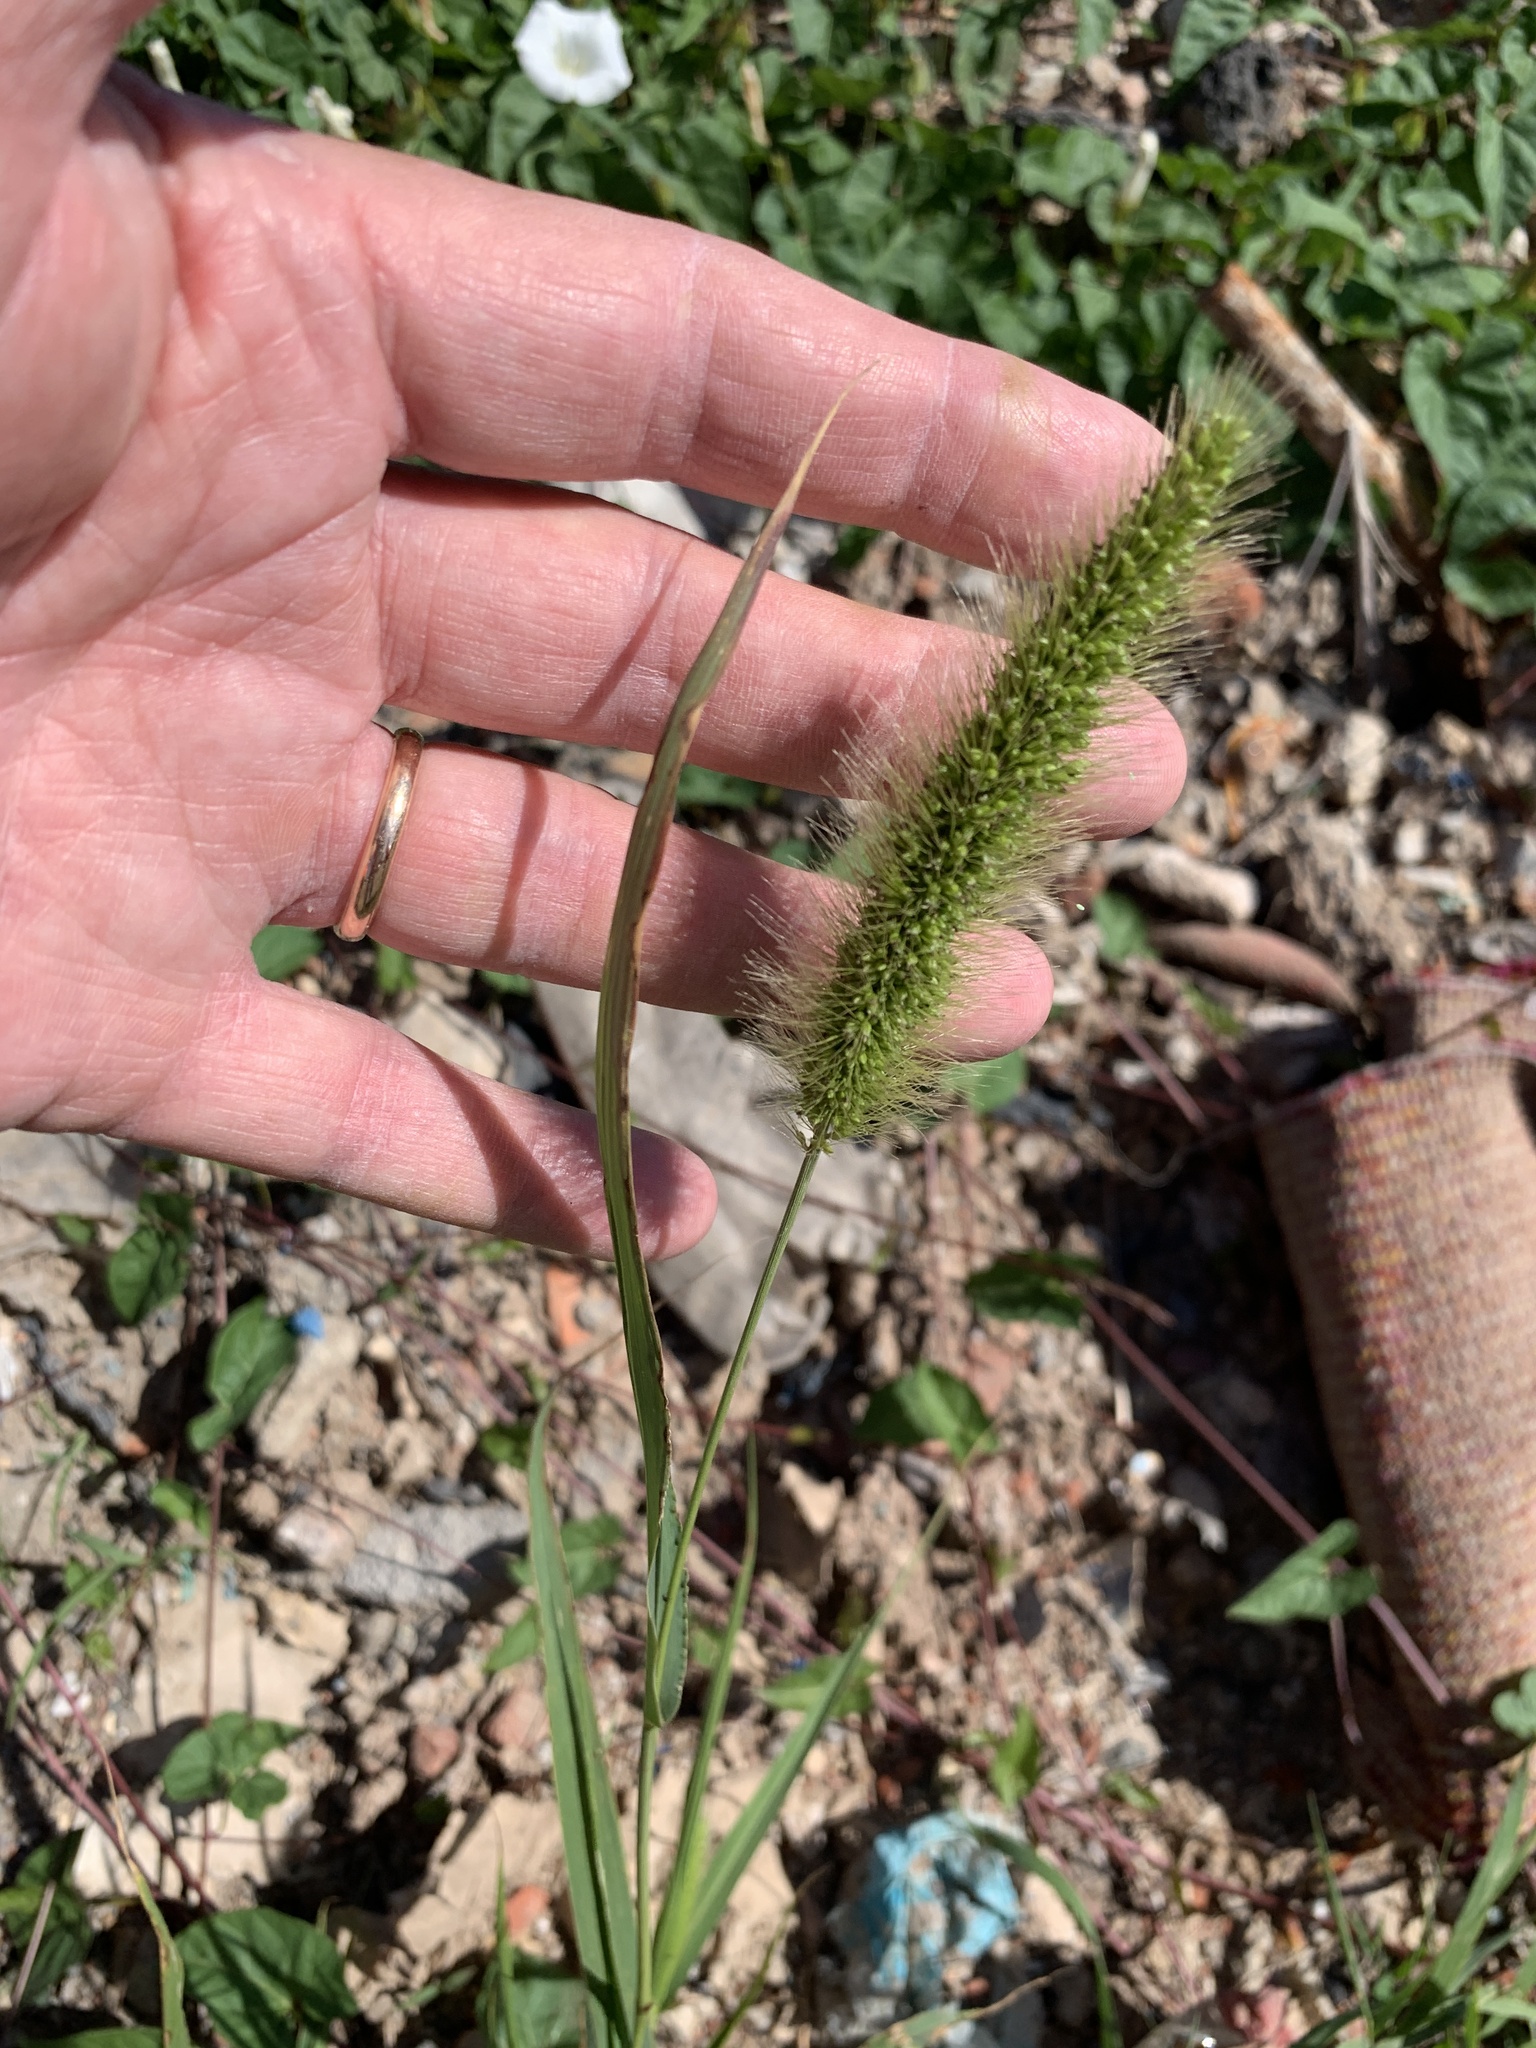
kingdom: Plantae
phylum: Tracheophyta
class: Liliopsida
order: Poales
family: Poaceae
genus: Setaria
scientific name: Setaria viridis
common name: Green bristlegrass
